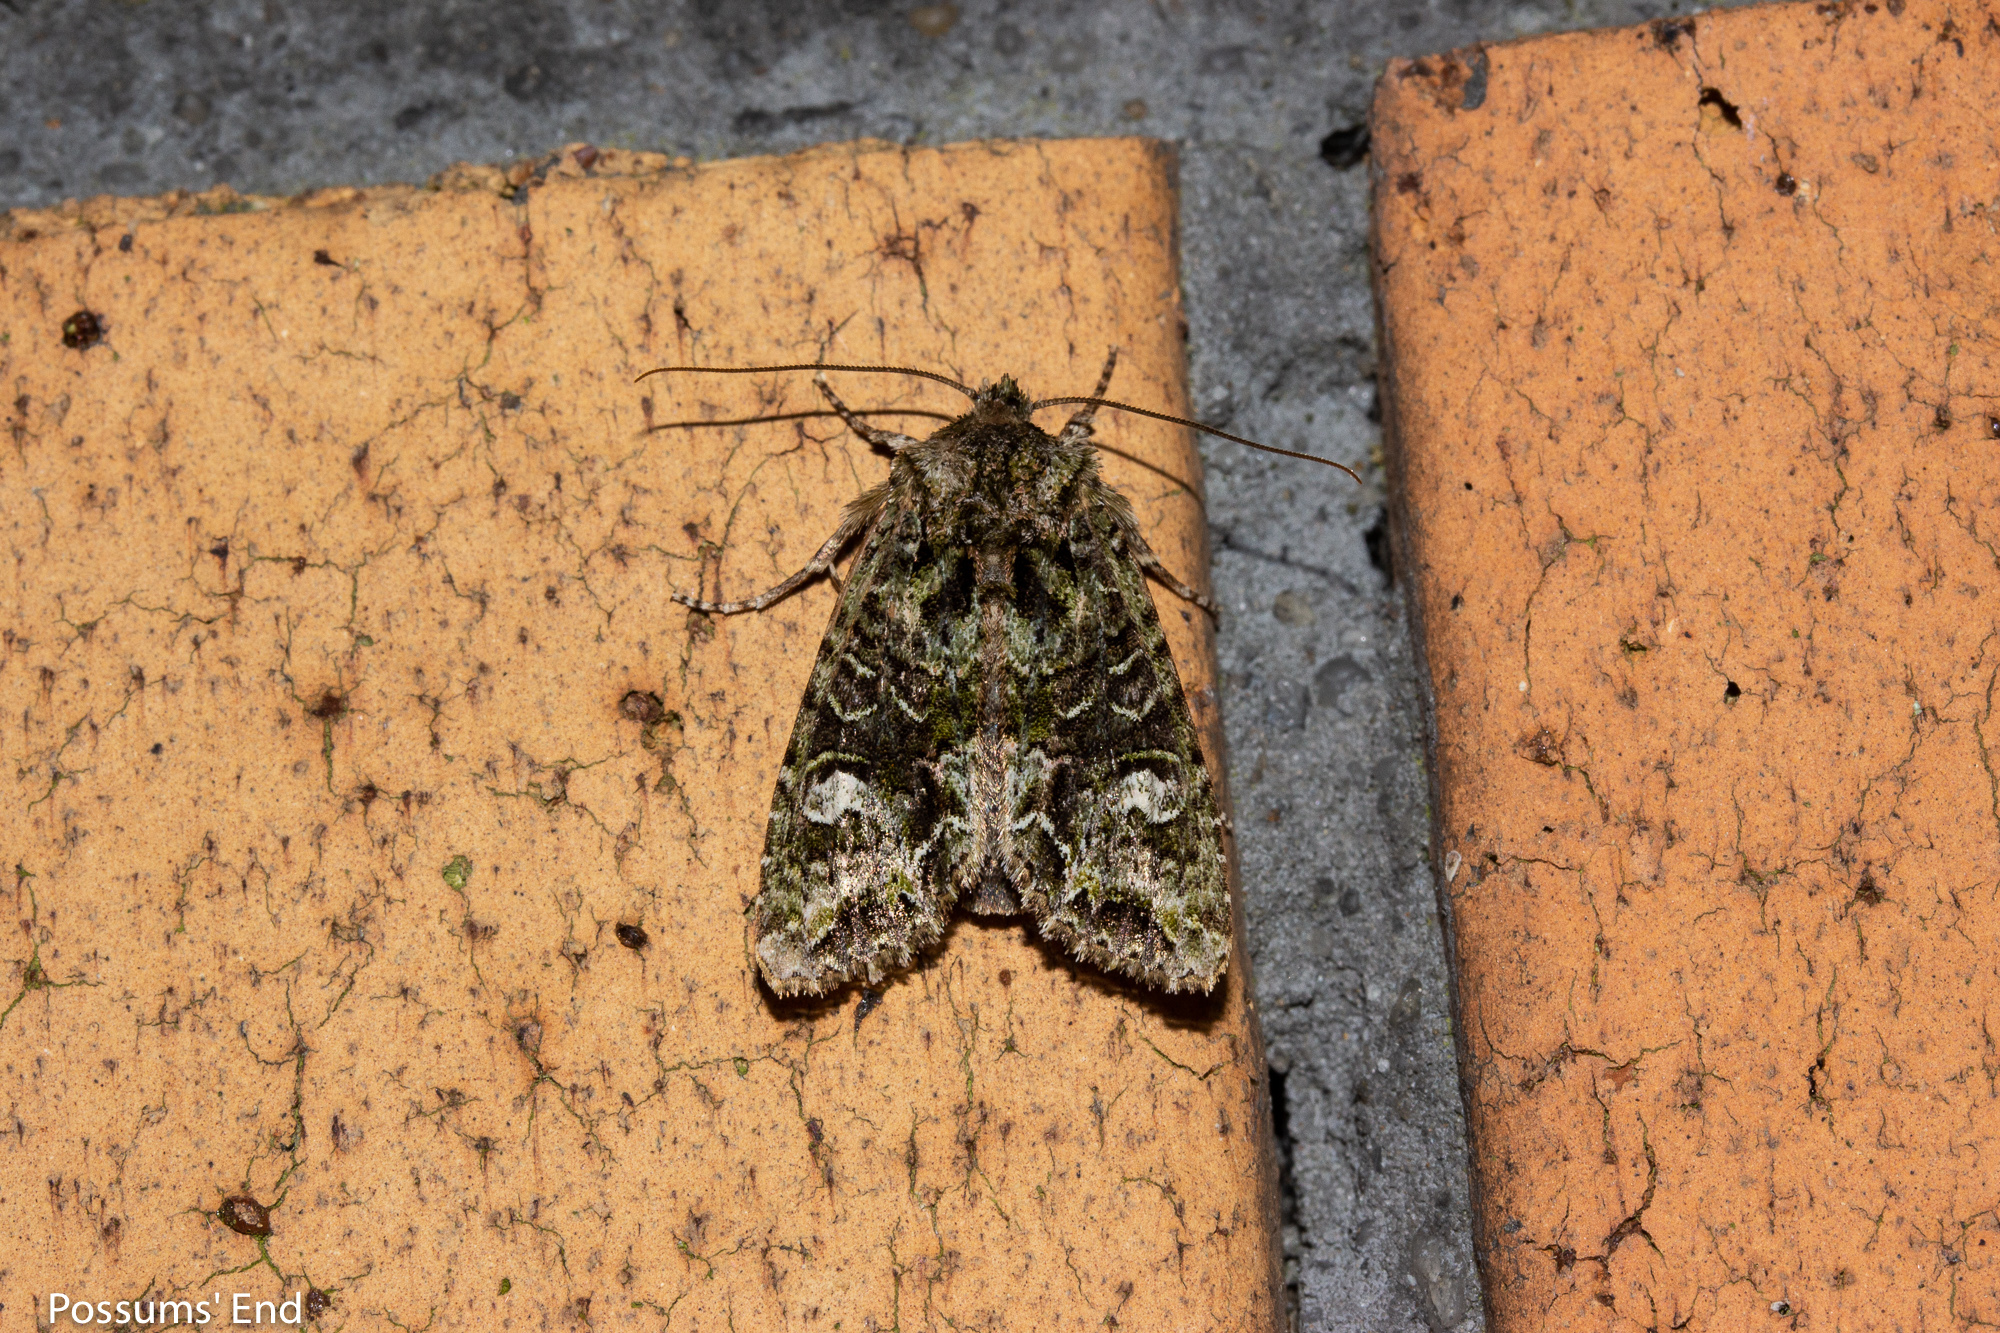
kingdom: Animalia
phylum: Arthropoda
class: Insecta
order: Lepidoptera
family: Noctuidae
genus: Ichneutica
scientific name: Ichneutica
